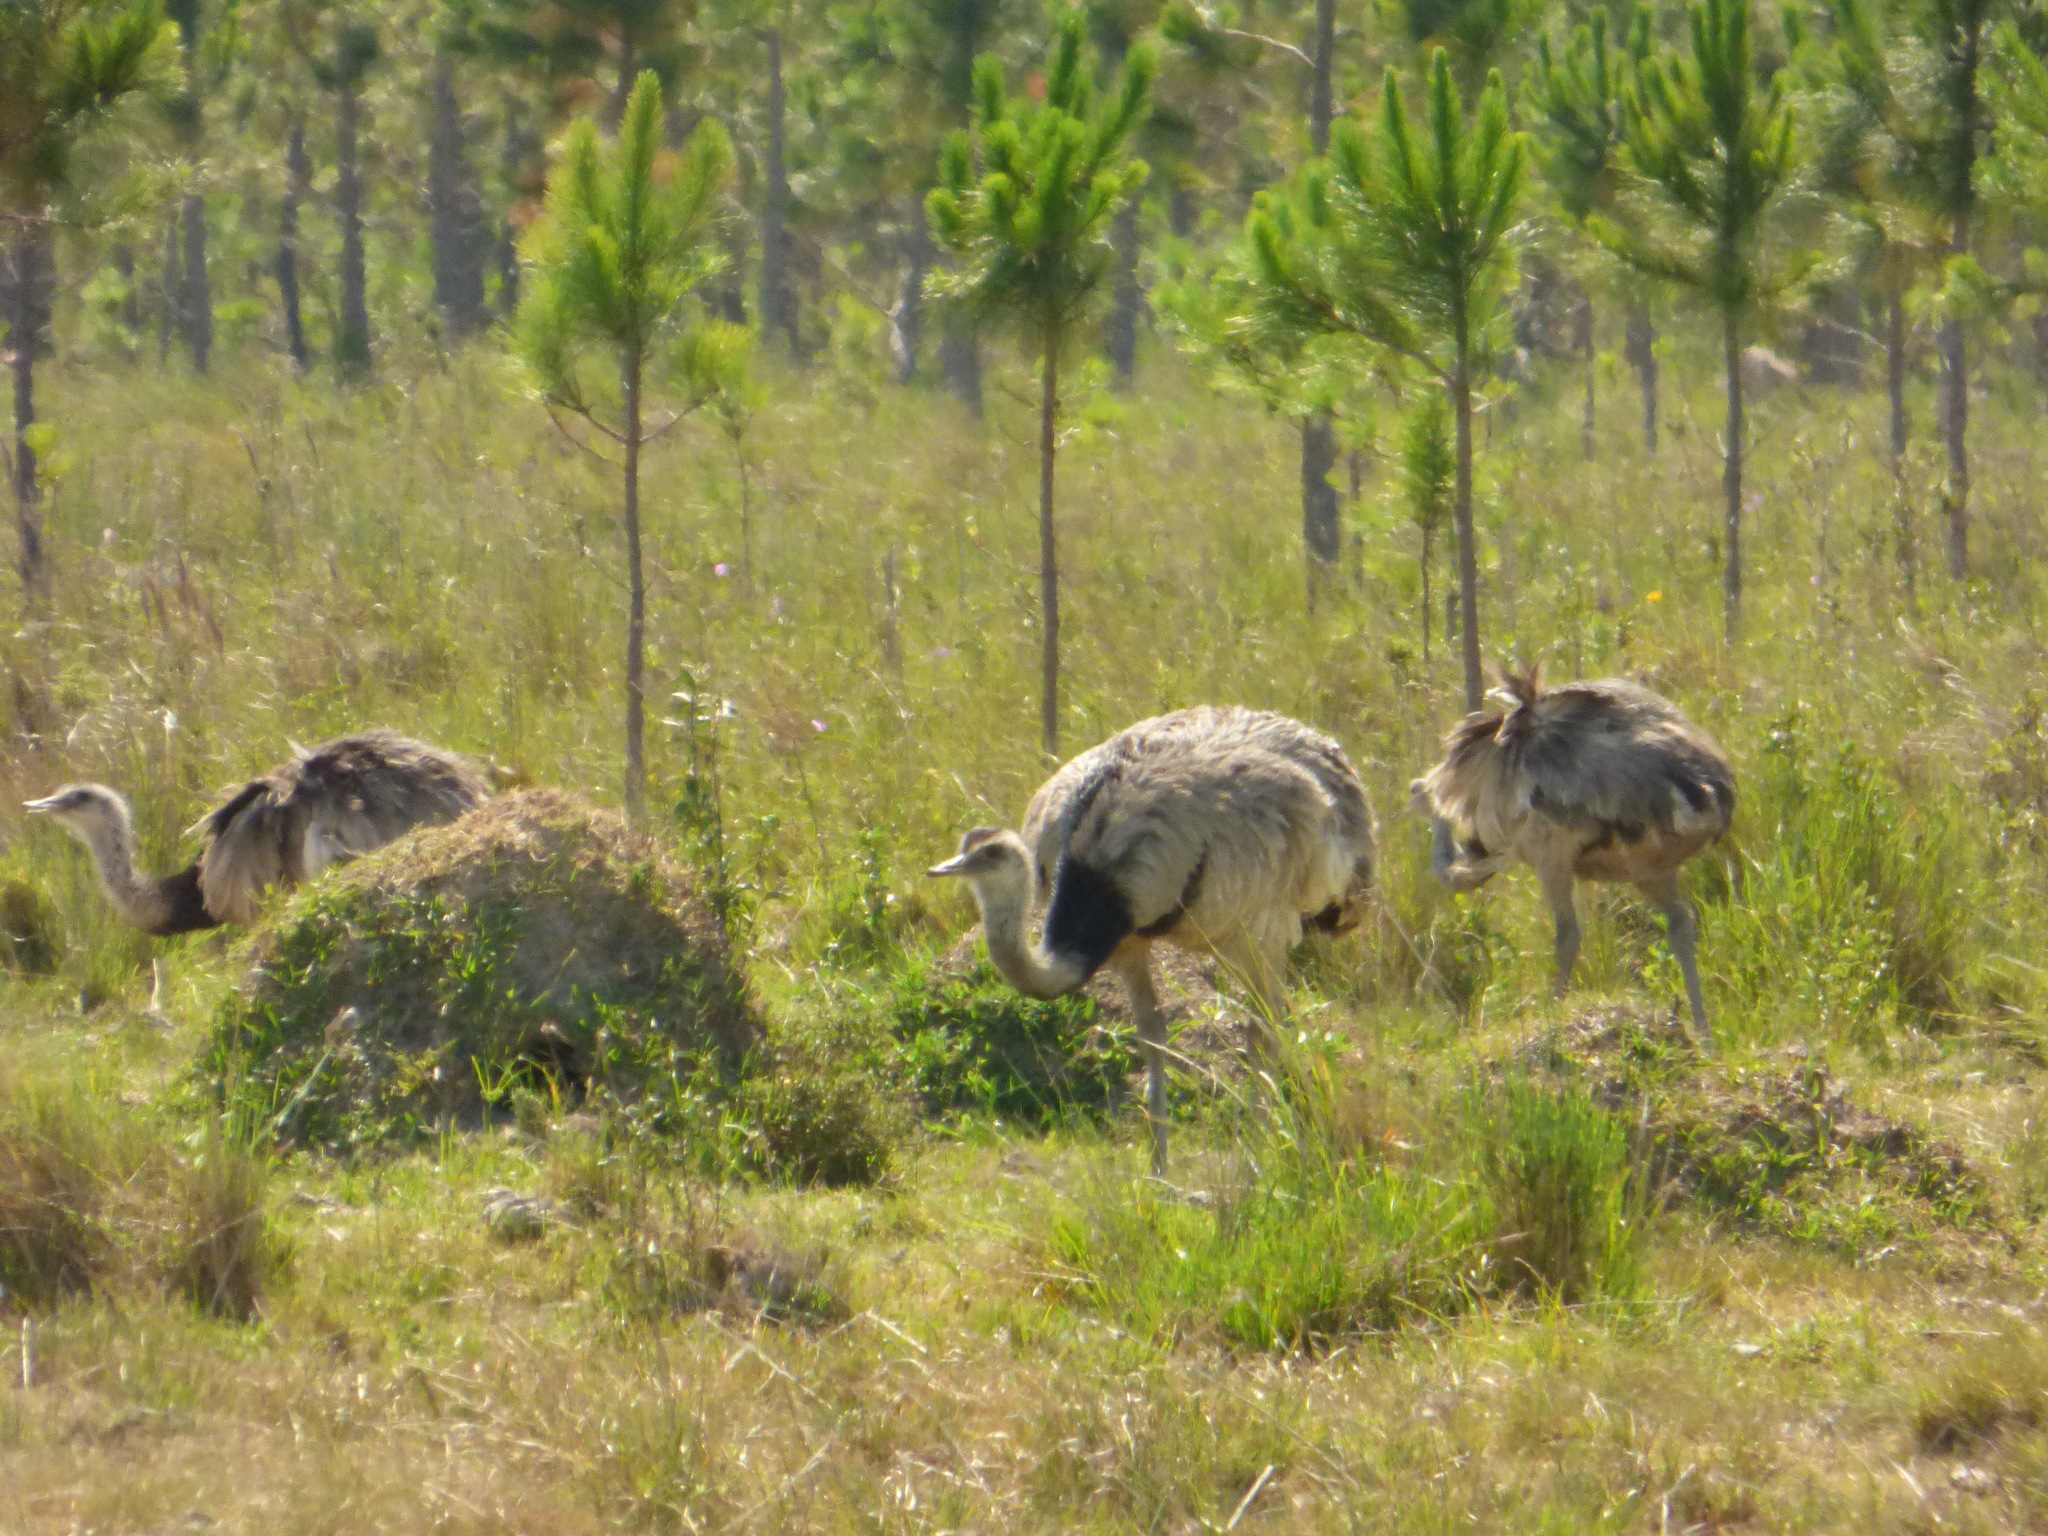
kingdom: Animalia
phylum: Chordata
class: Aves
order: Rheiformes
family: Rheidae
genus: Rhea
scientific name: Rhea americana
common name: Greater rhea
